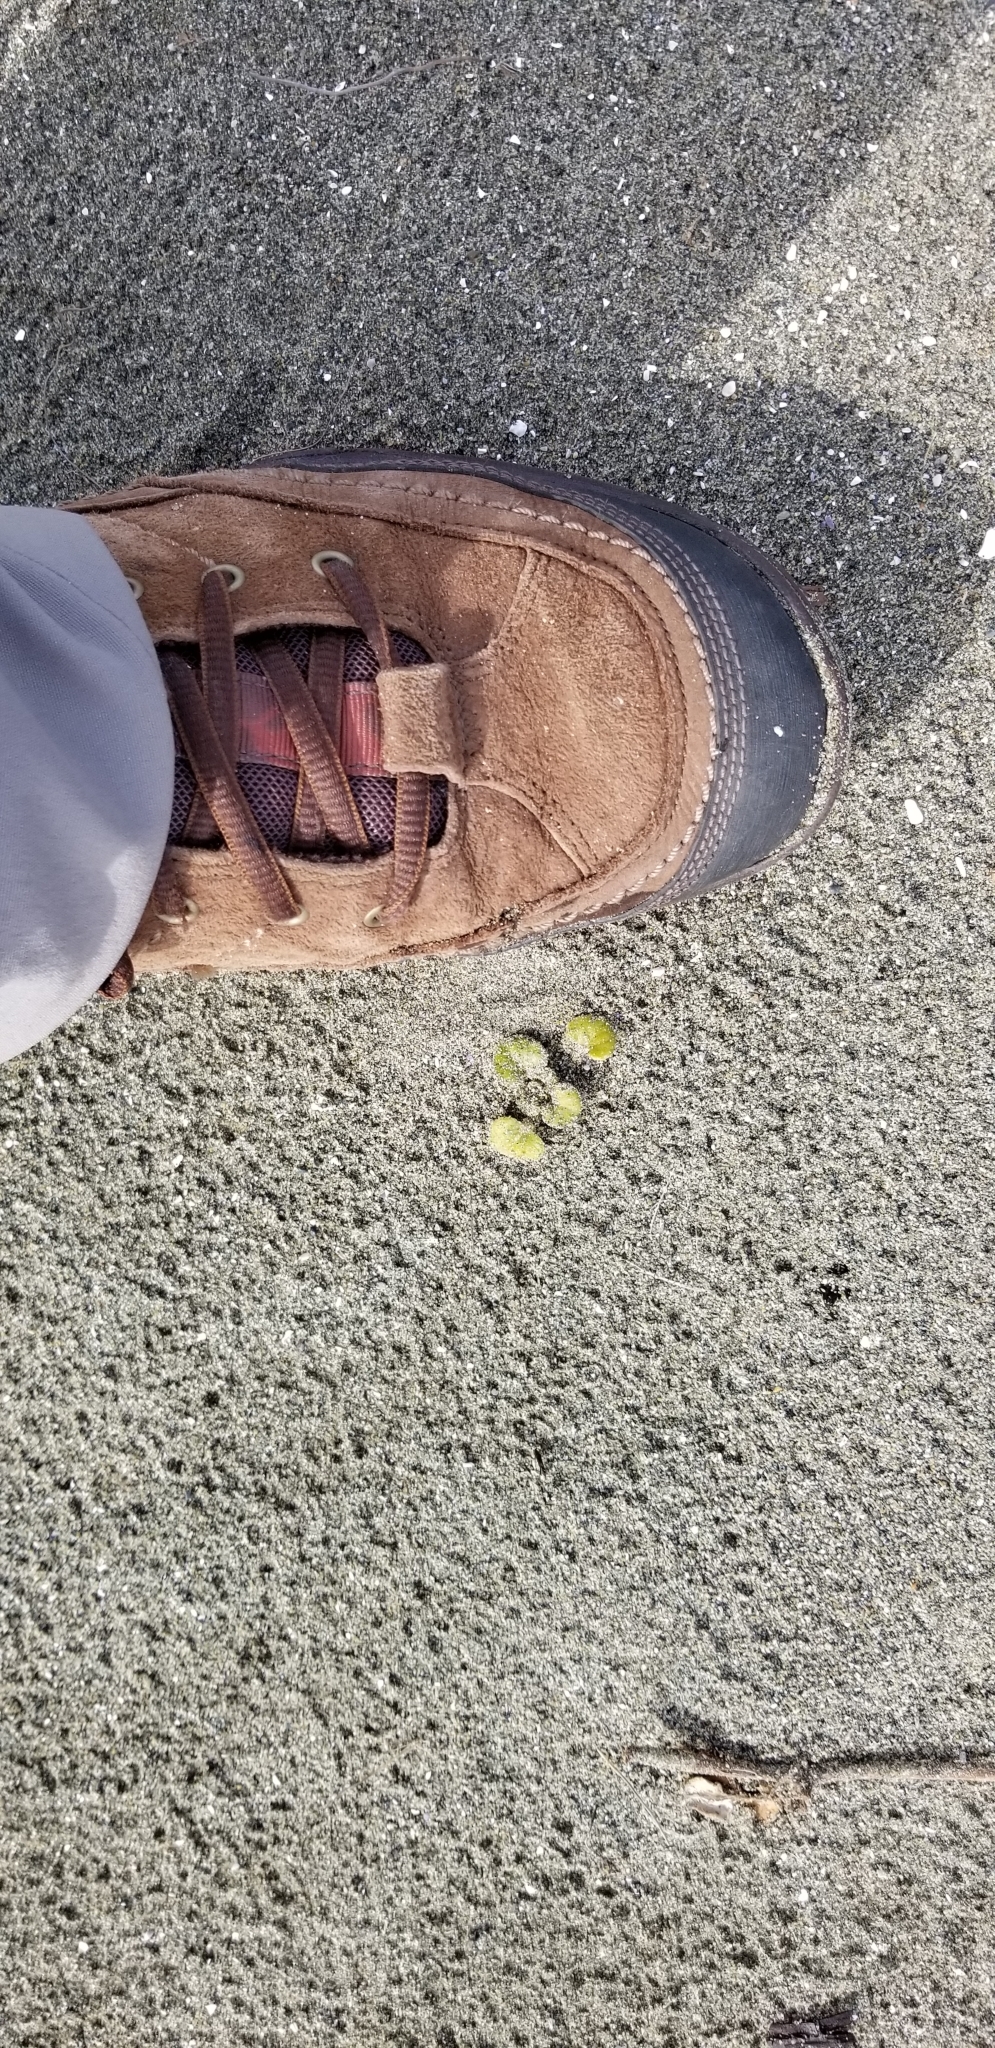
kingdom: Plantae
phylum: Tracheophyta
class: Magnoliopsida
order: Caryophyllales
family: Nyctaginaceae
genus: Abronia
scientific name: Abronia latifolia
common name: Yellow sand-verbena
